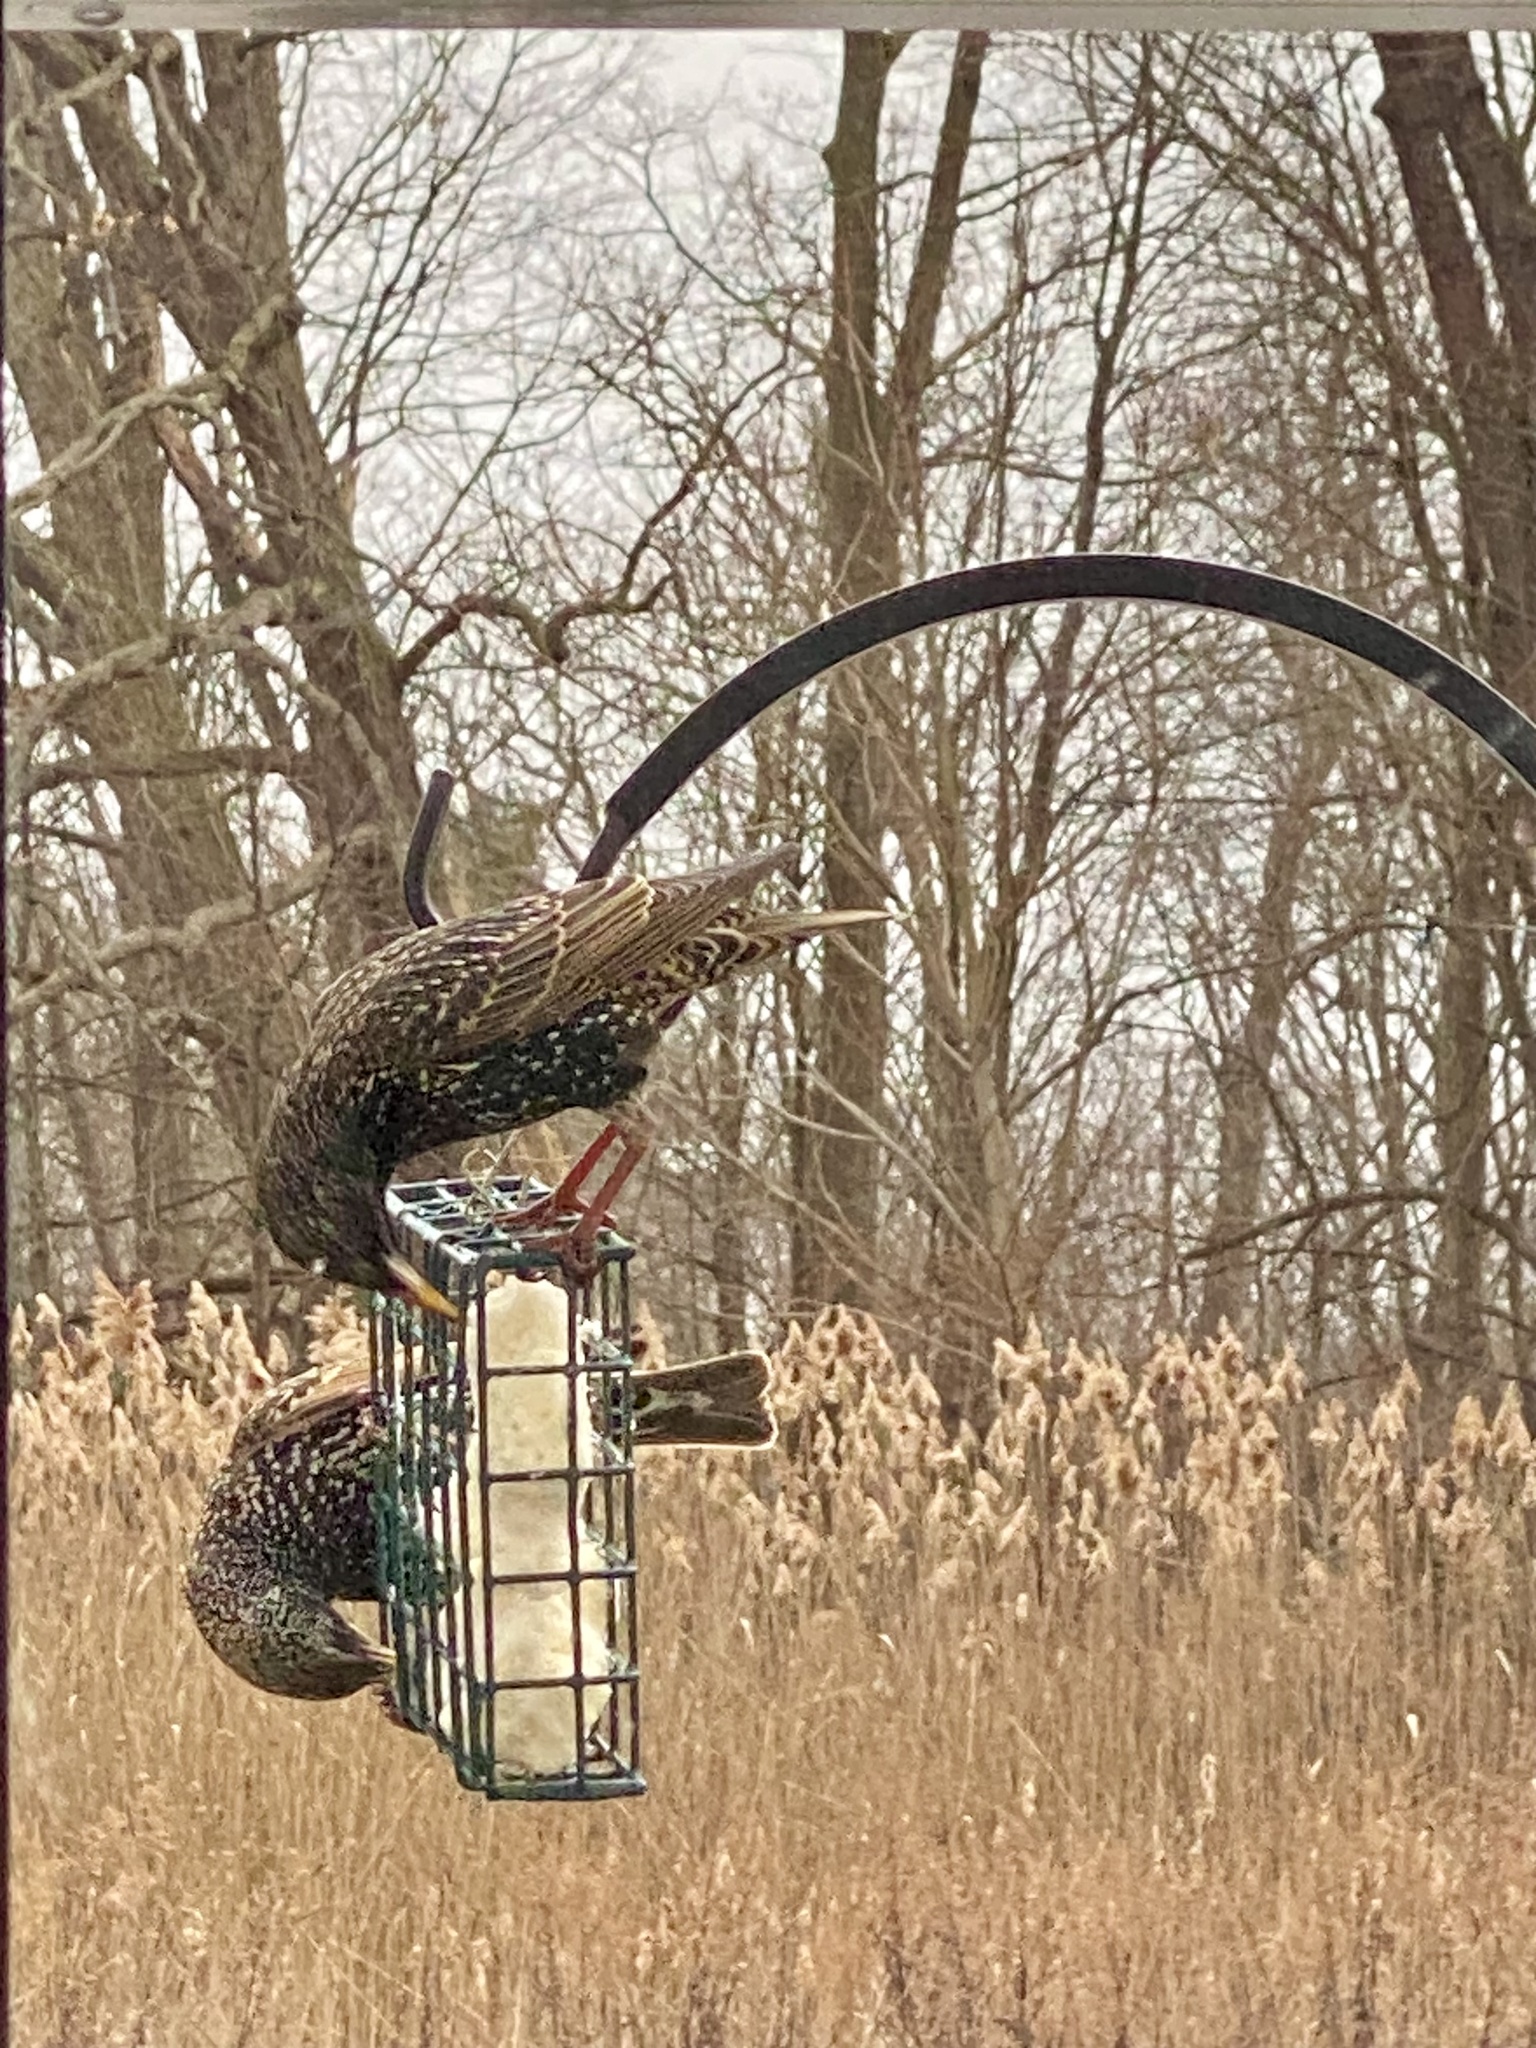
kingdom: Animalia
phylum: Chordata
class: Aves
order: Passeriformes
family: Sturnidae
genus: Sturnus
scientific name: Sturnus vulgaris
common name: Common starling
